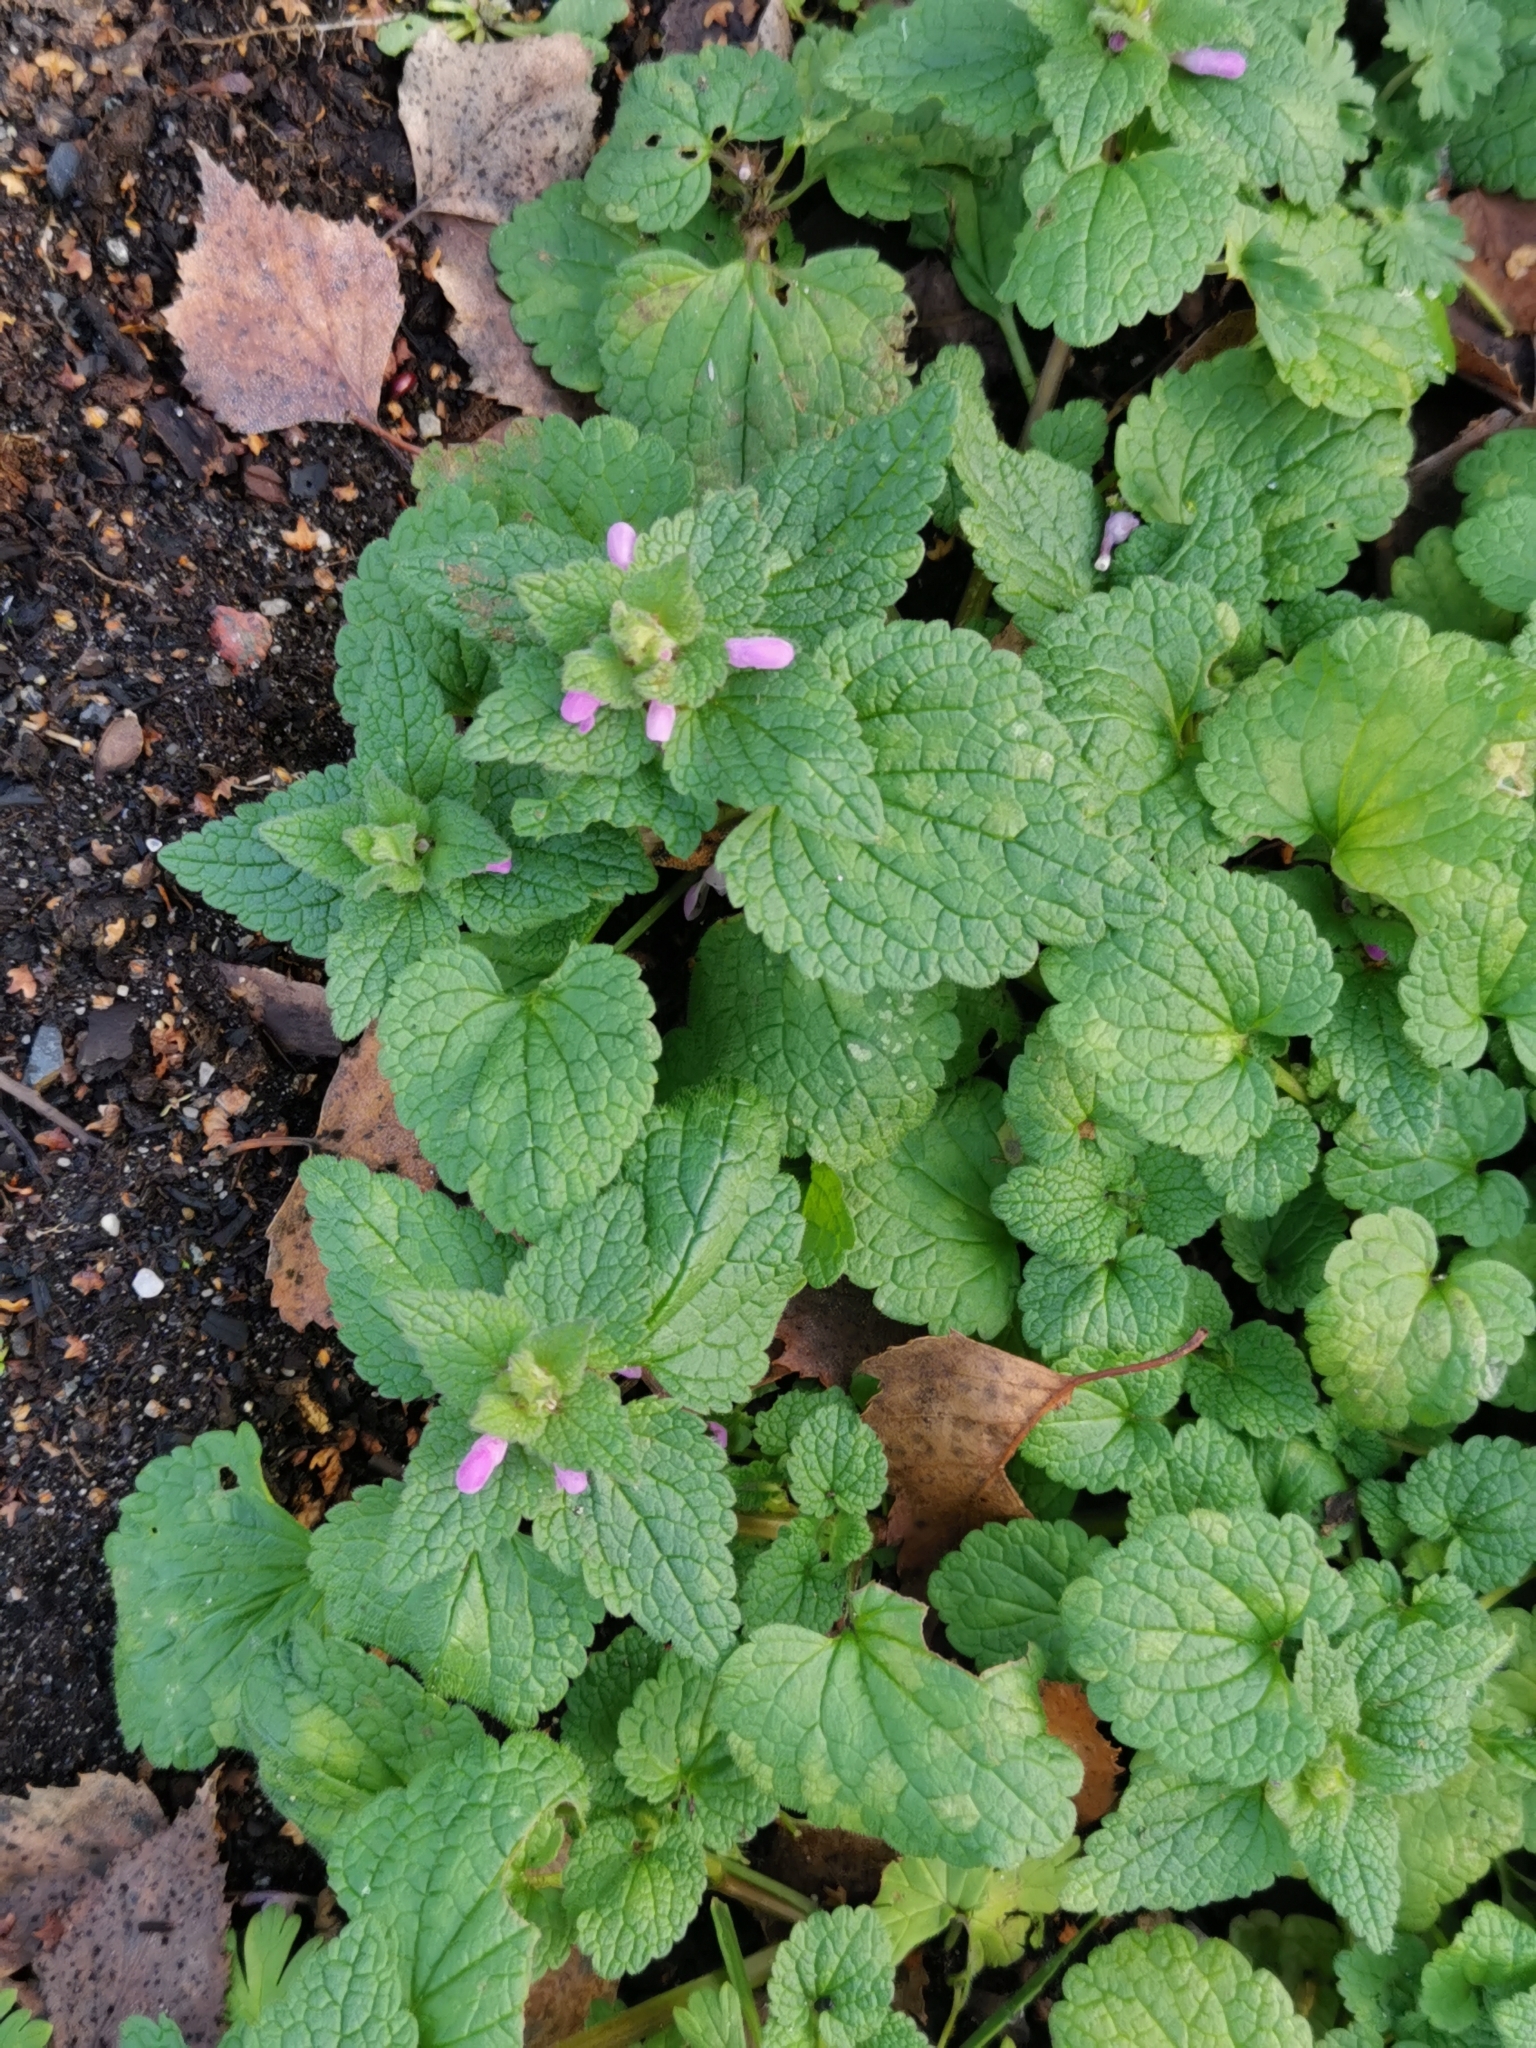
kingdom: Plantae
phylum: Tracheophyta
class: Magnoliopsida
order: Lamiales
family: Lamiaceae
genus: Lamium
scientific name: Lamium purpureum
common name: Red dead-nettle
